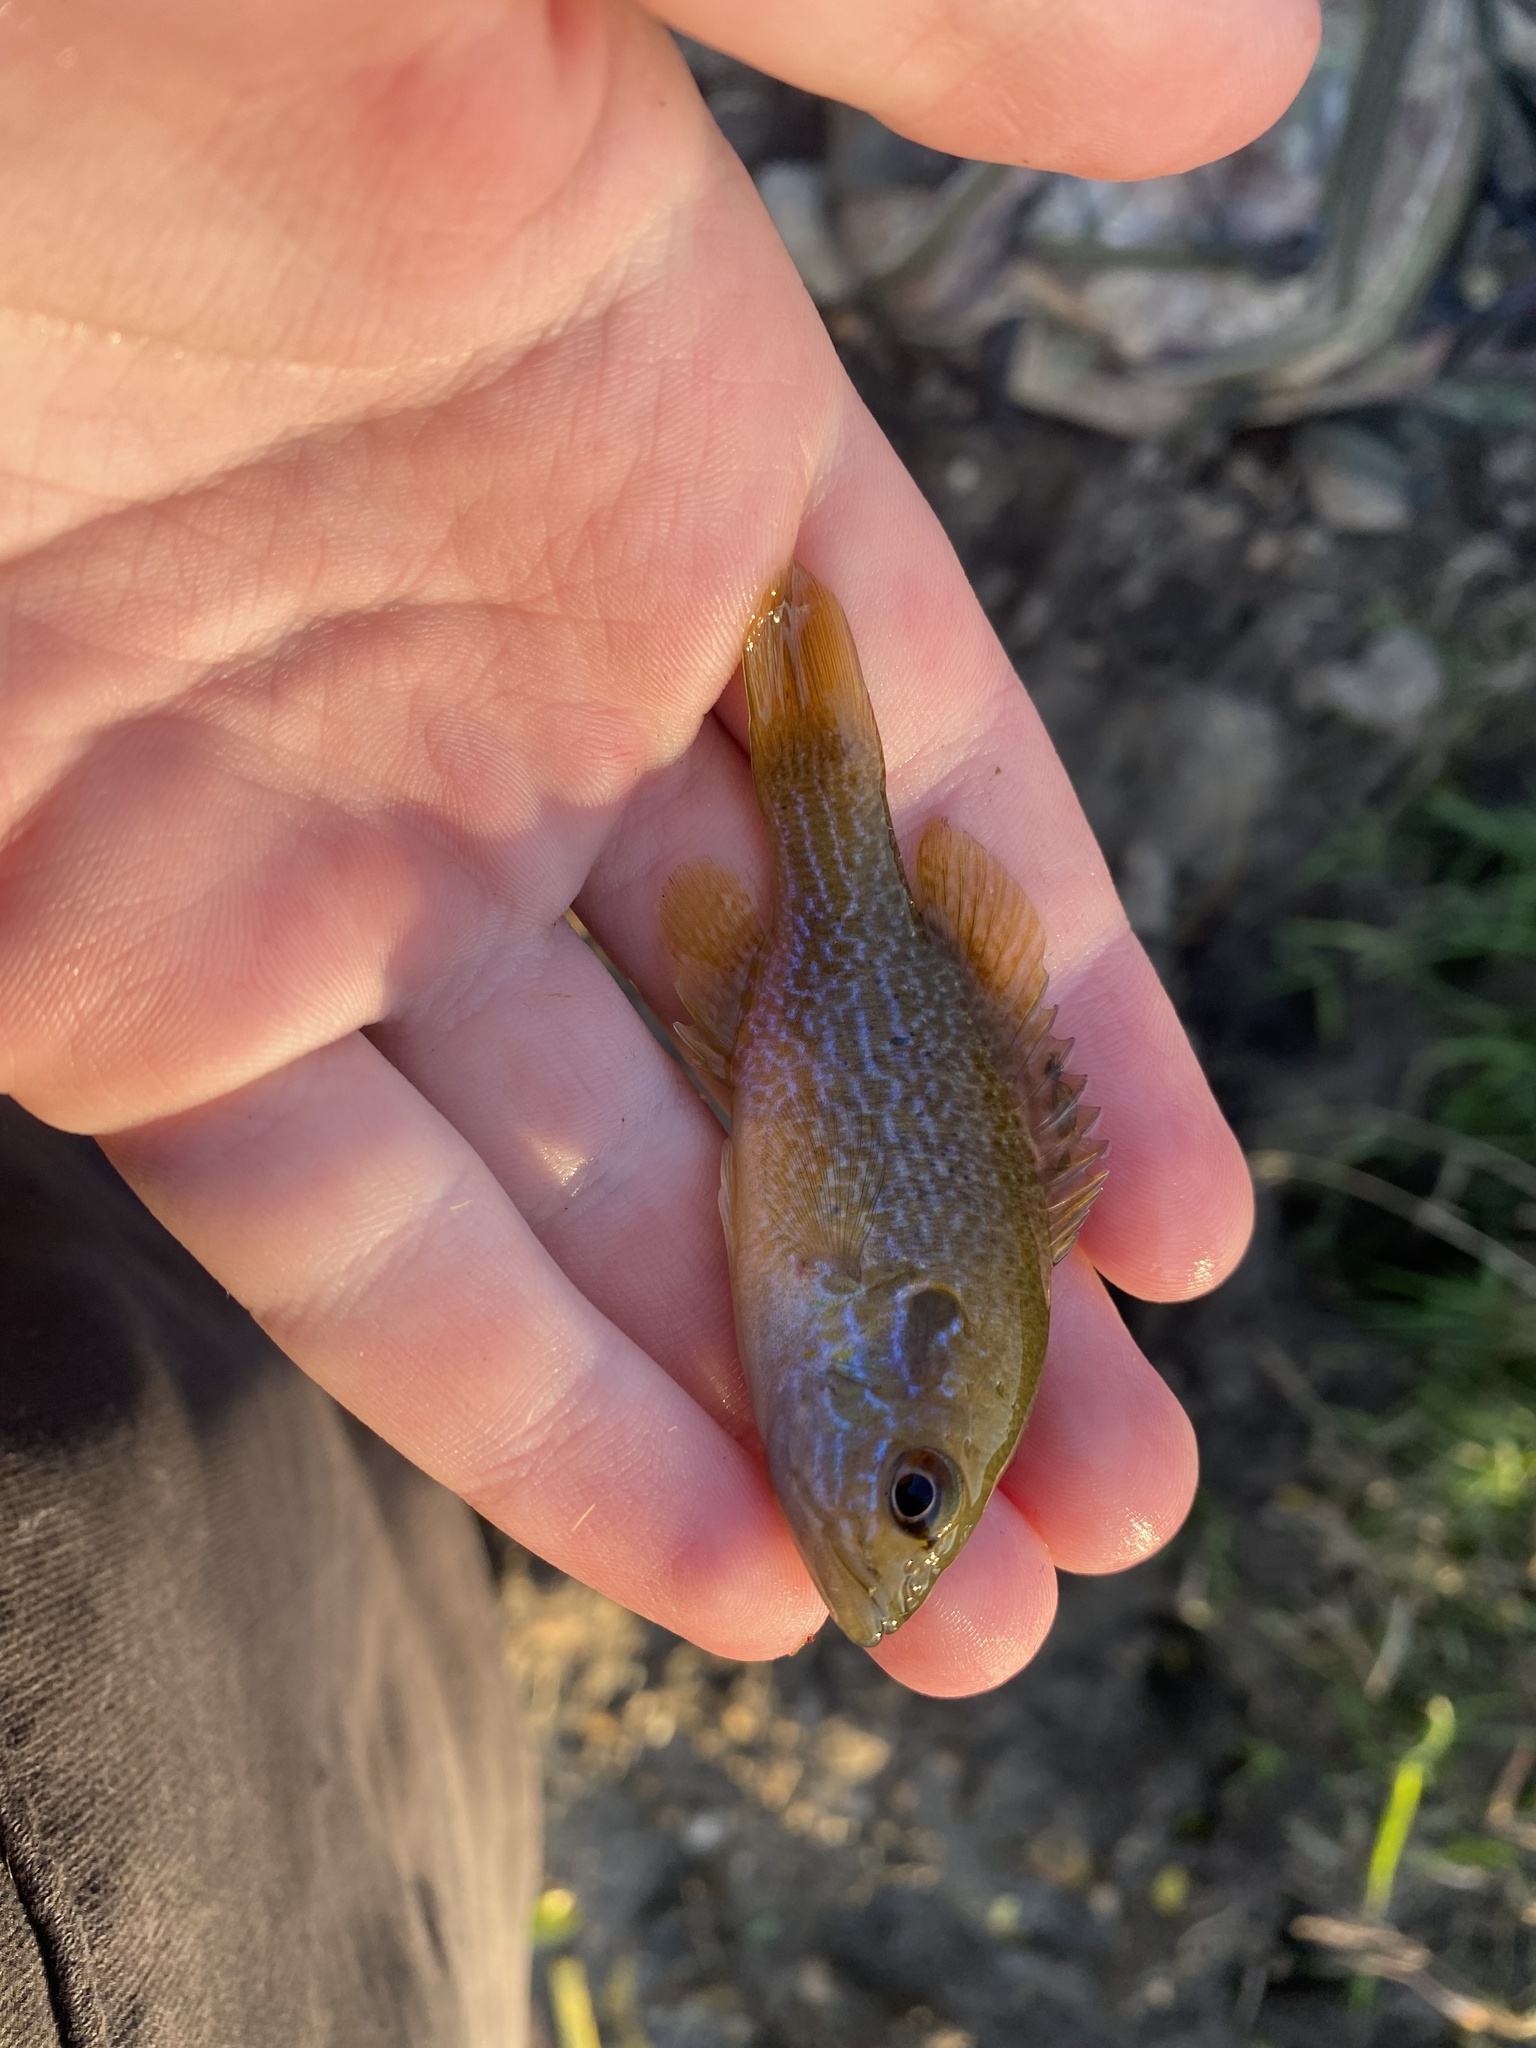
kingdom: Animalia
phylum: Chordata
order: Perciformes
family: Centrarchidae
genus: Lepomis
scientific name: Lepomis cyanellus
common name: Green sunfish
